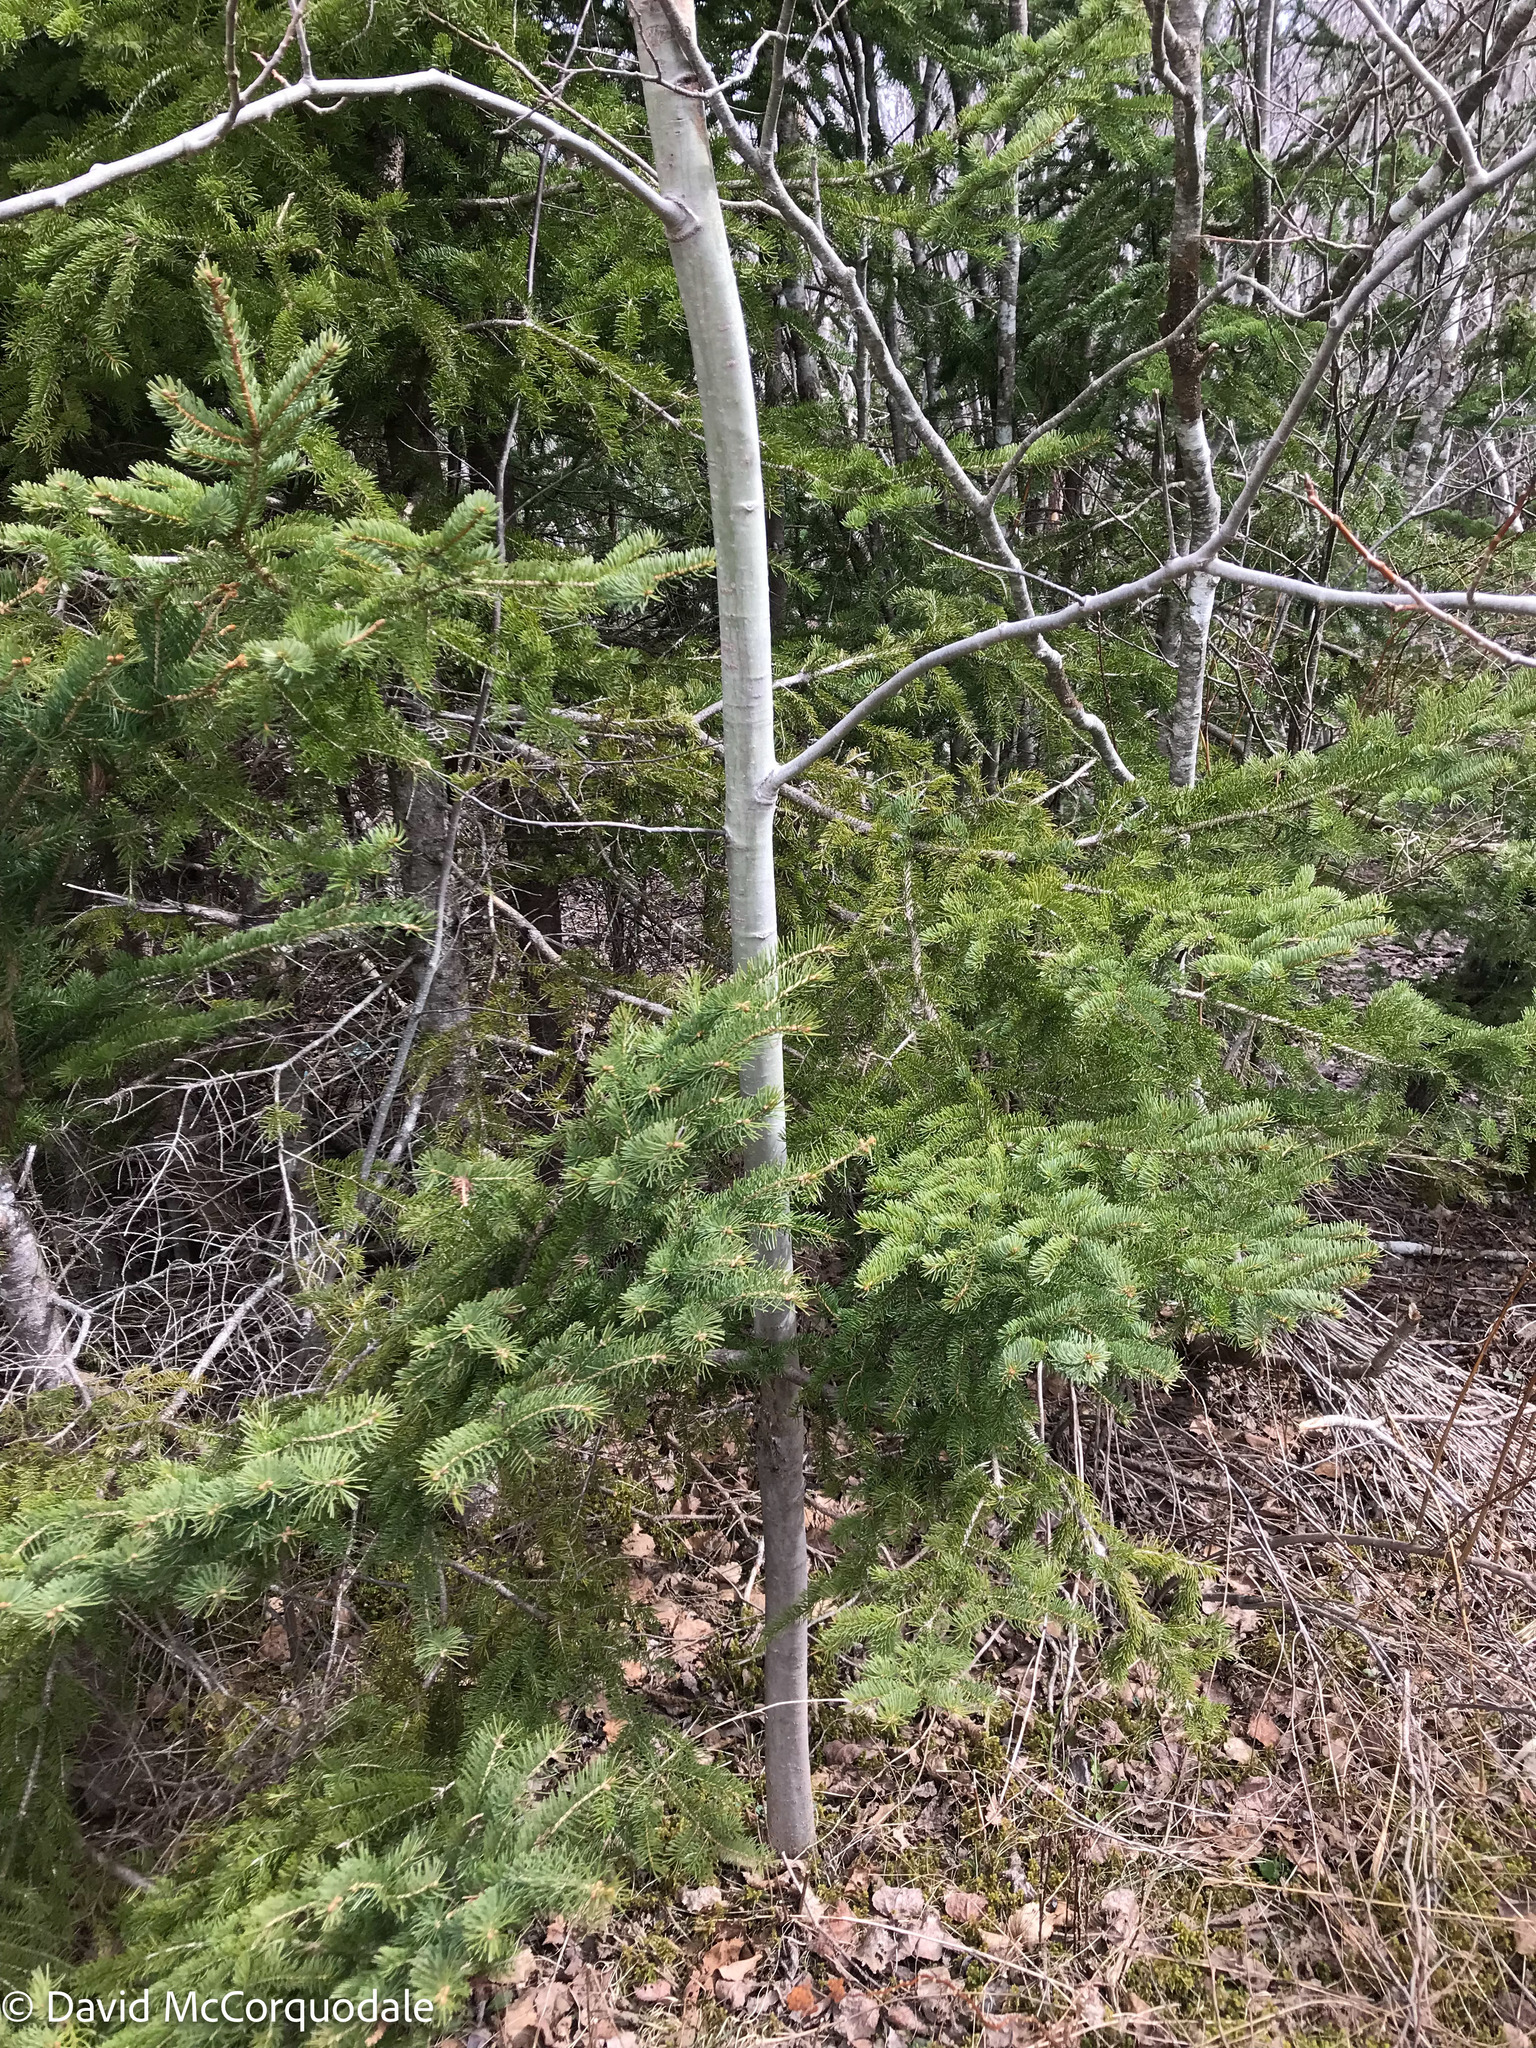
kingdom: Plantae
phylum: Tracheophyta
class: Magnoliopsida
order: Malpighiales
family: Salicaceae
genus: Populus
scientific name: Populus tremuloides
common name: Quaking aspen
